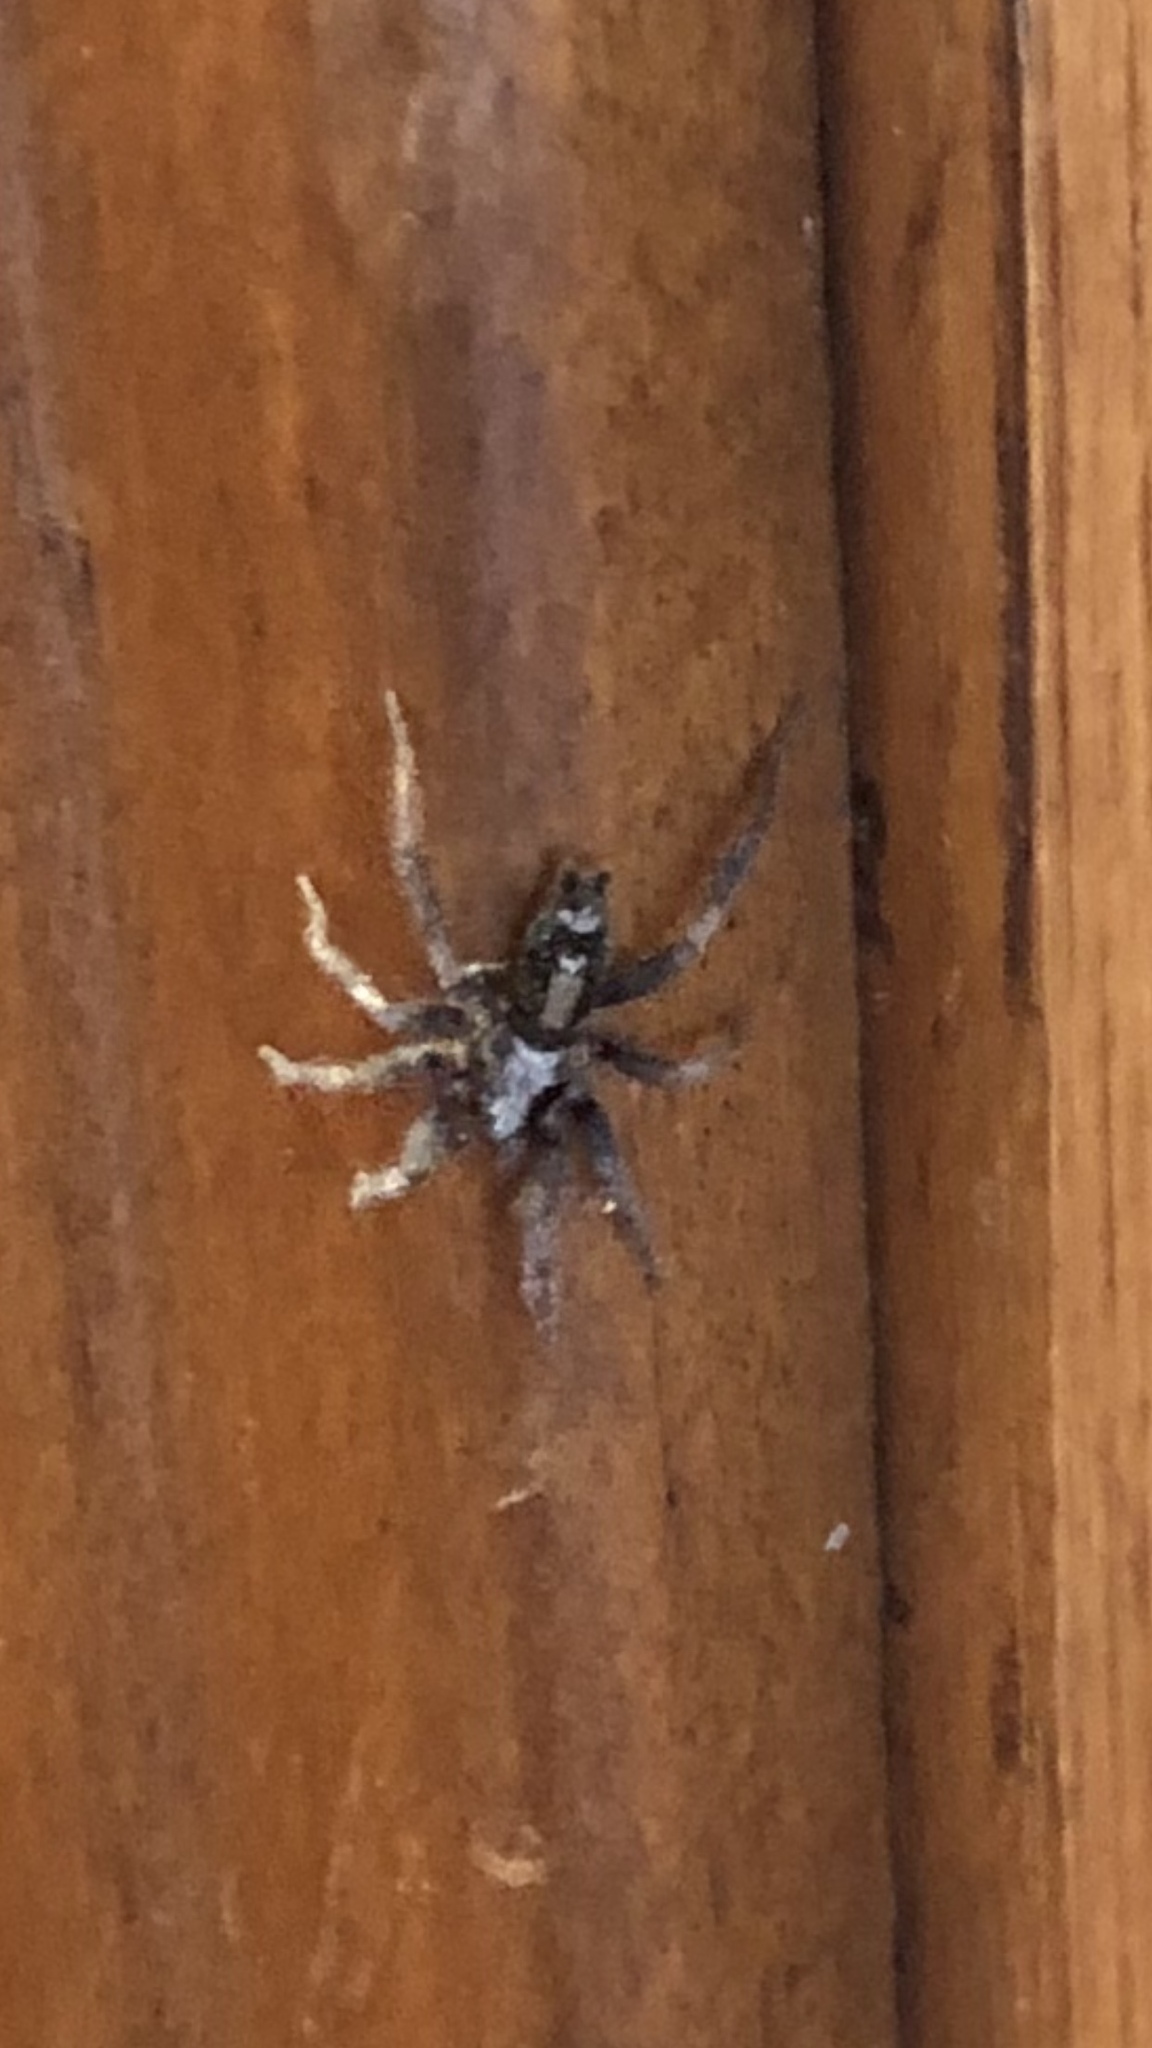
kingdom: Animalia
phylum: Arthropoda
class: Arachnida
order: Araneae
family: Gnaphosidae
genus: Herpyllus
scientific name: Herpyllus ecclesiasticus
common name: Eastern parson spider
